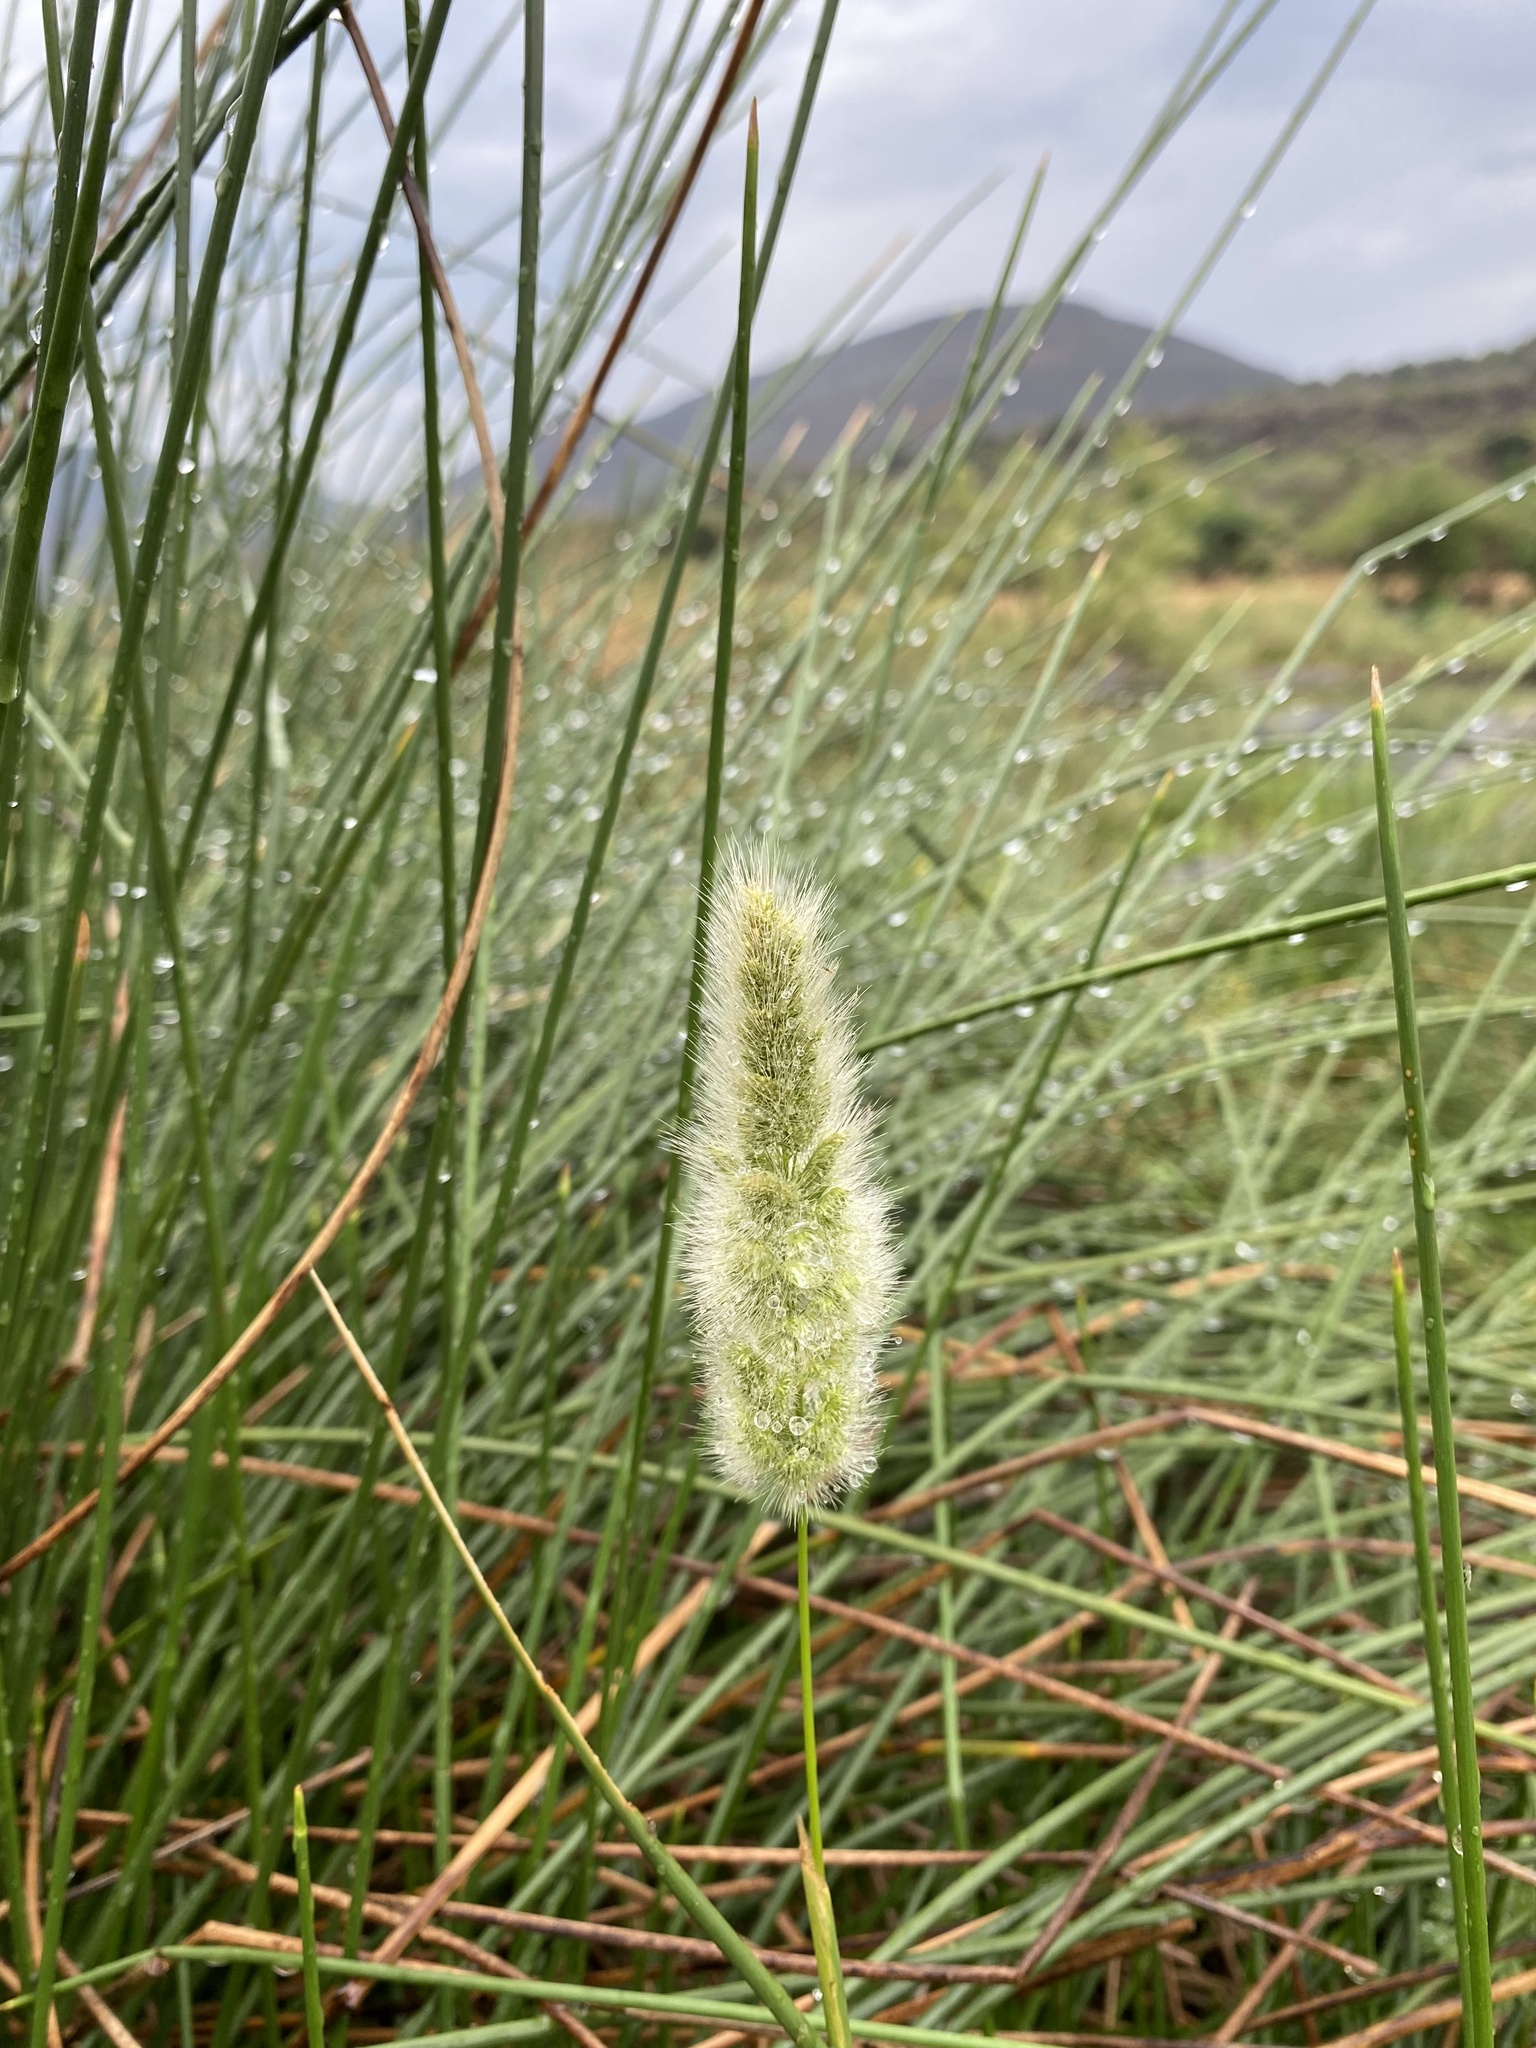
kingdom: Plantae
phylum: Tracheophyta
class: Liliopsida
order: Poales
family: Poaceae
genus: Polypogon
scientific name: Polypogon monspeliensis
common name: Annual rabbitsfoot grass
